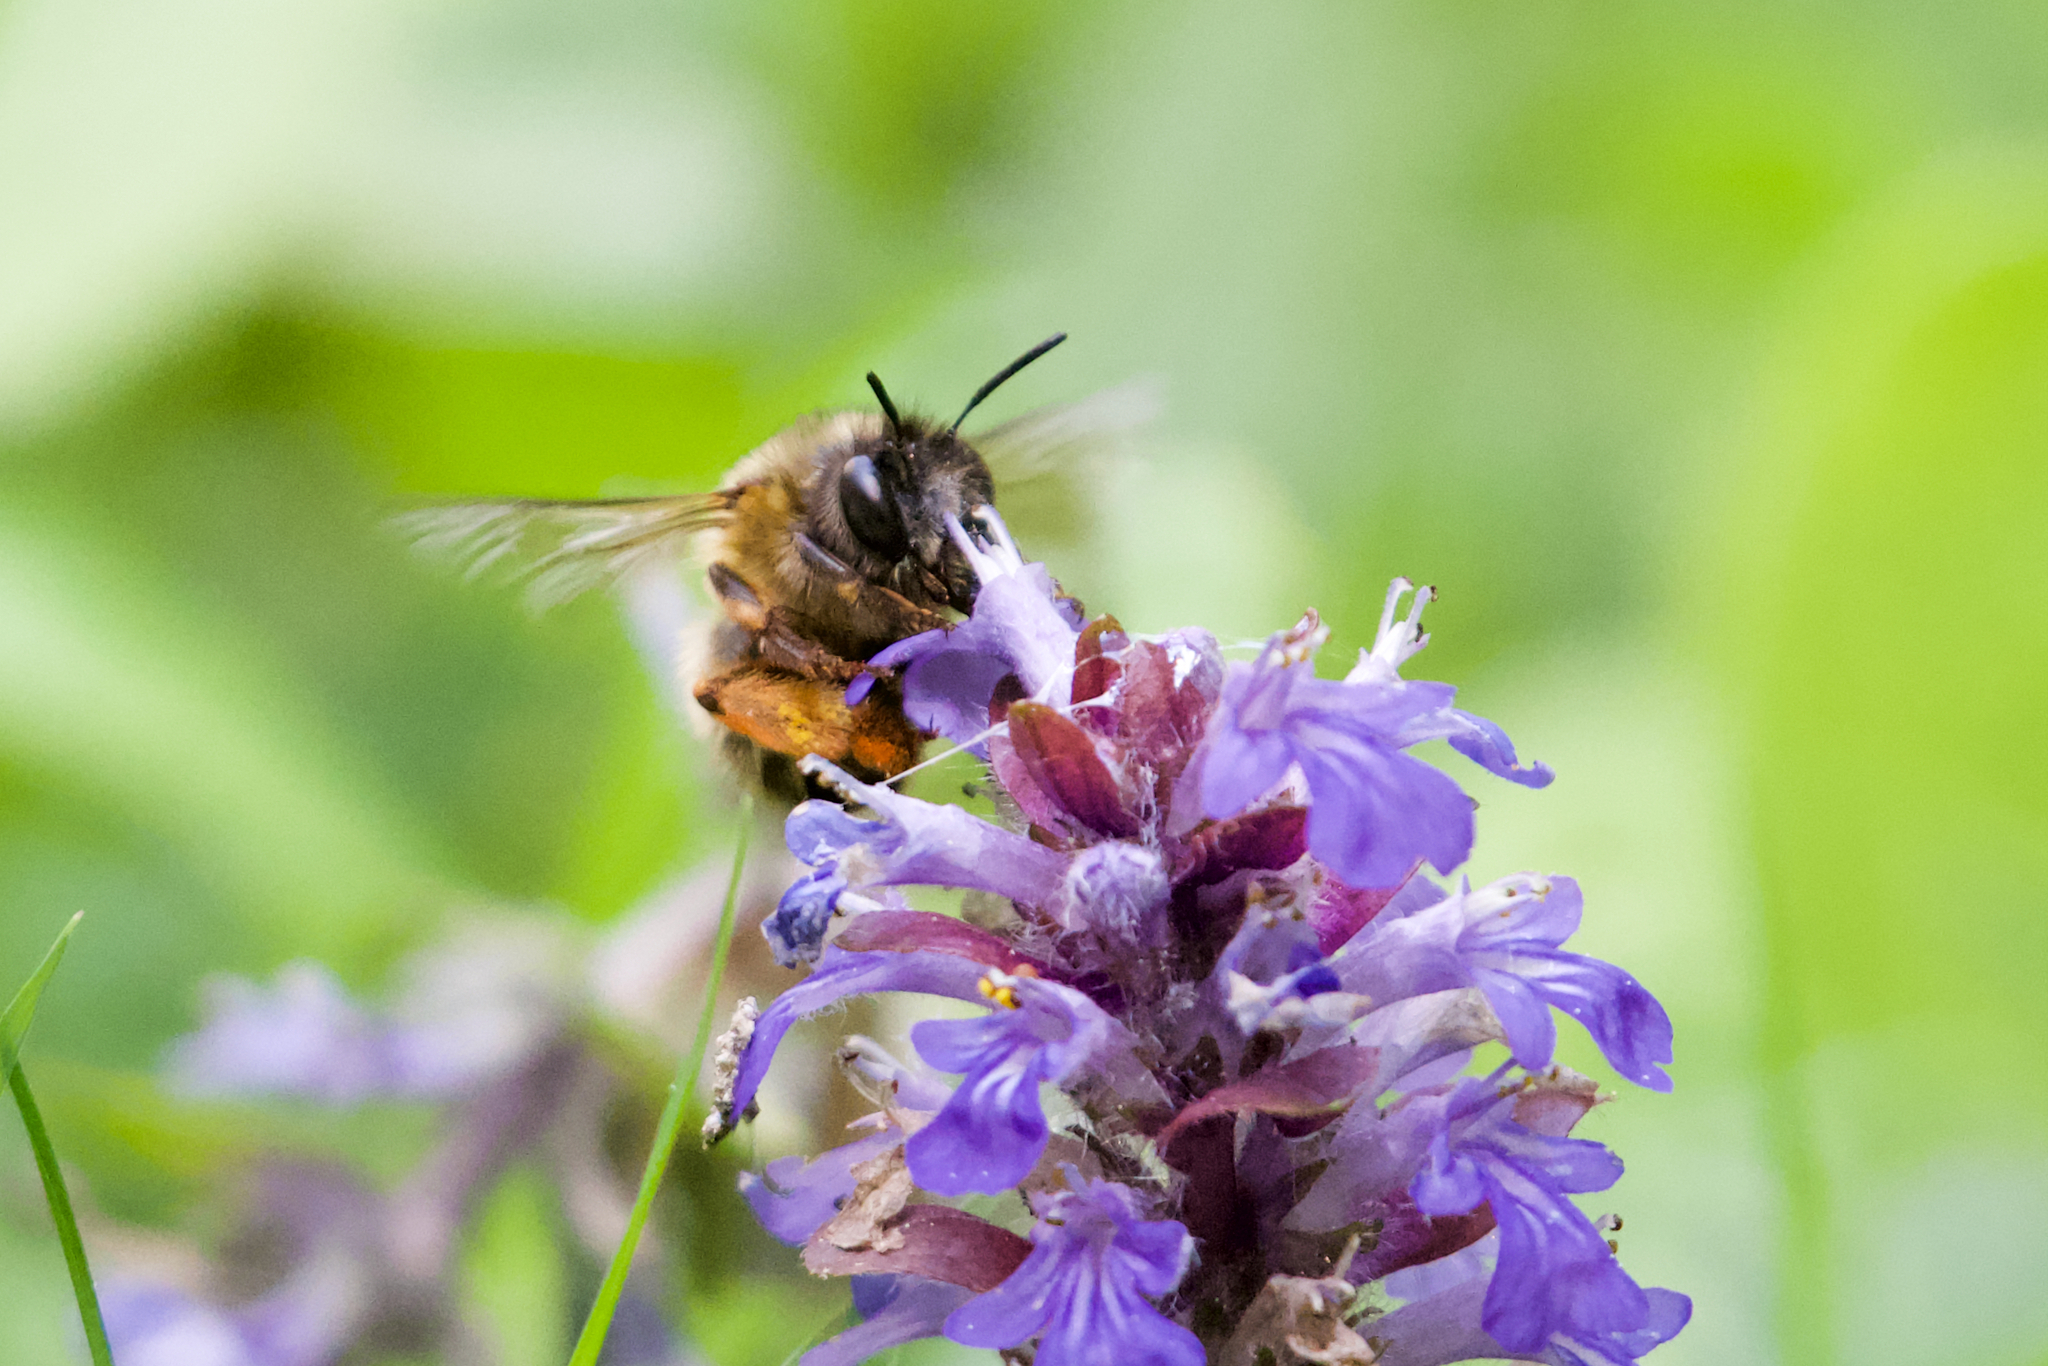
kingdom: Animalia
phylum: Arthropoda
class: Insecta
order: Hymenoptera
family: Apidae
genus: Anthophora
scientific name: Anthophora plumipes
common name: Hairy-footed flower bee
